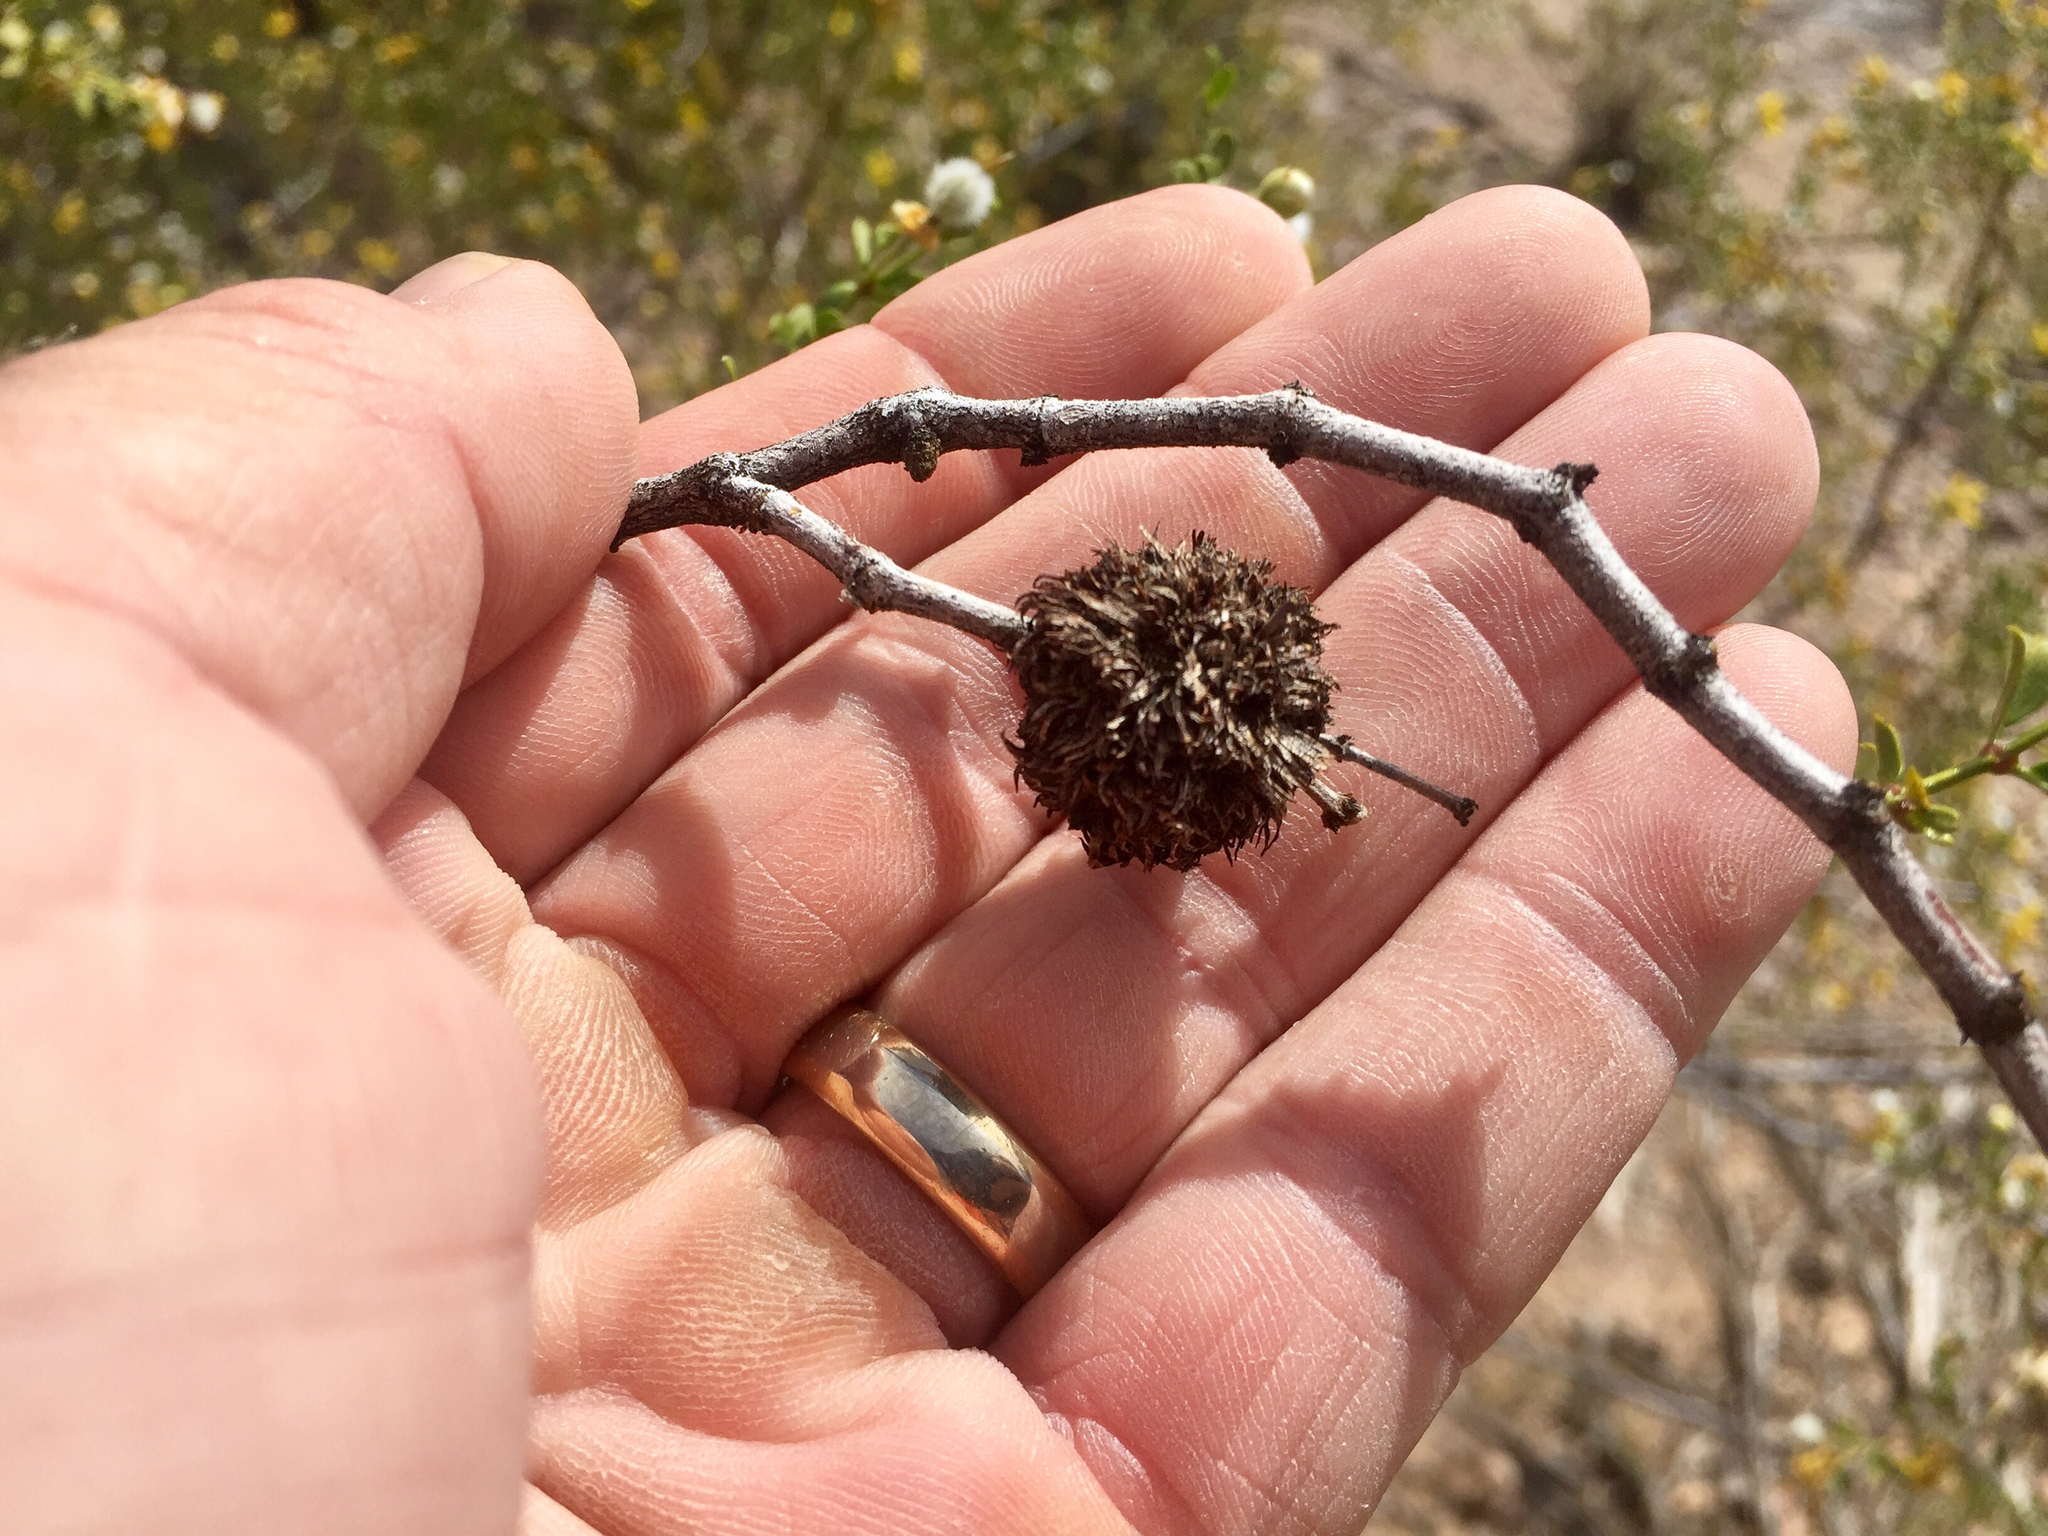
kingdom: Animalia
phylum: Arthropoda
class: Insecta
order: Diptera
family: Cecidomyiidae
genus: Asphondylia
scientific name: Asphondylia auripila
